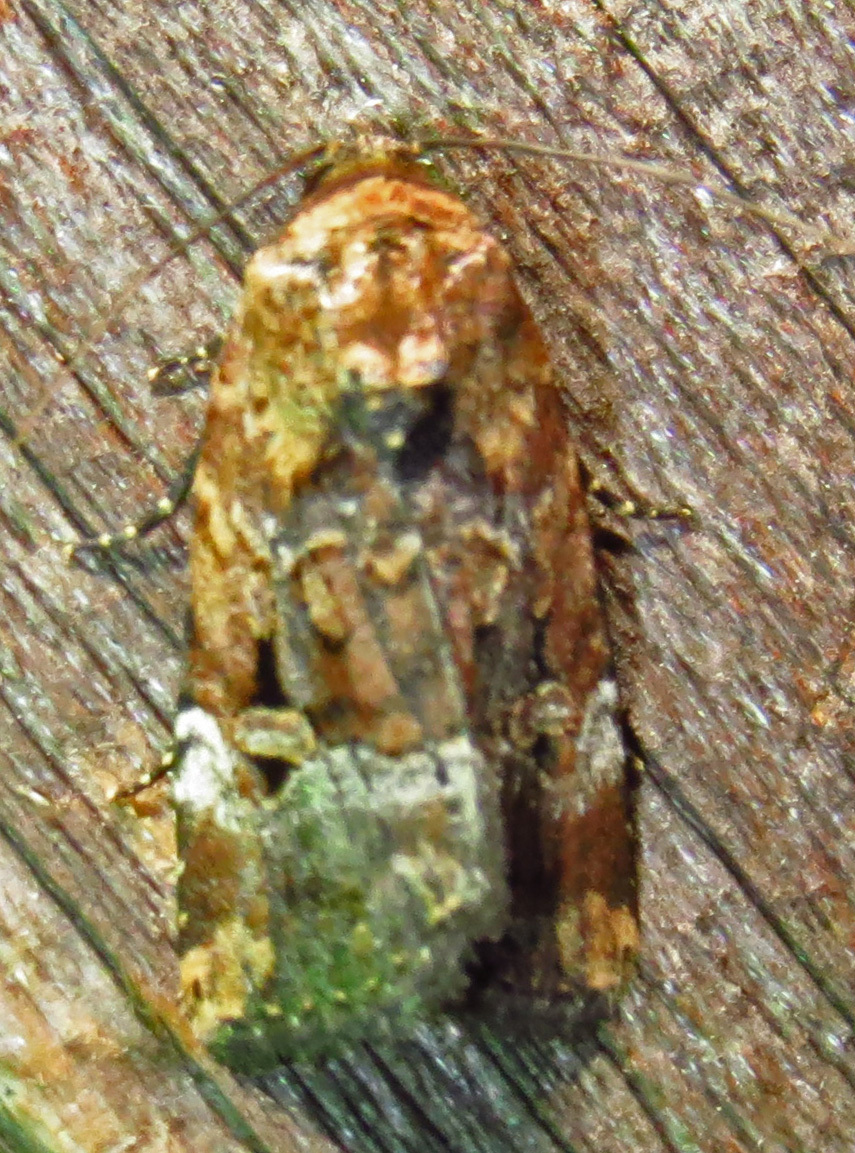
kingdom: Animalia
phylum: Arthropoda
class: Insecta
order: Lepidoptera
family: Noctuidae
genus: Elaphria
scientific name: Elaphria chalcedonia
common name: Chalcedony midget
